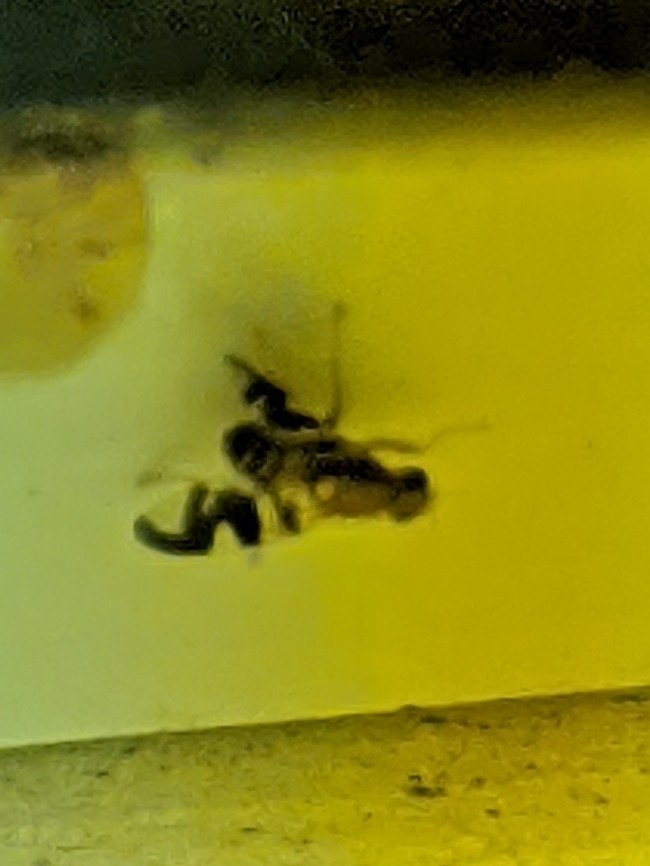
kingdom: Animalia
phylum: Arthropoda
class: Insecta
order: Diptera
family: Tephritidae
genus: Rhagoletis
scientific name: Rhagoletis suavis
